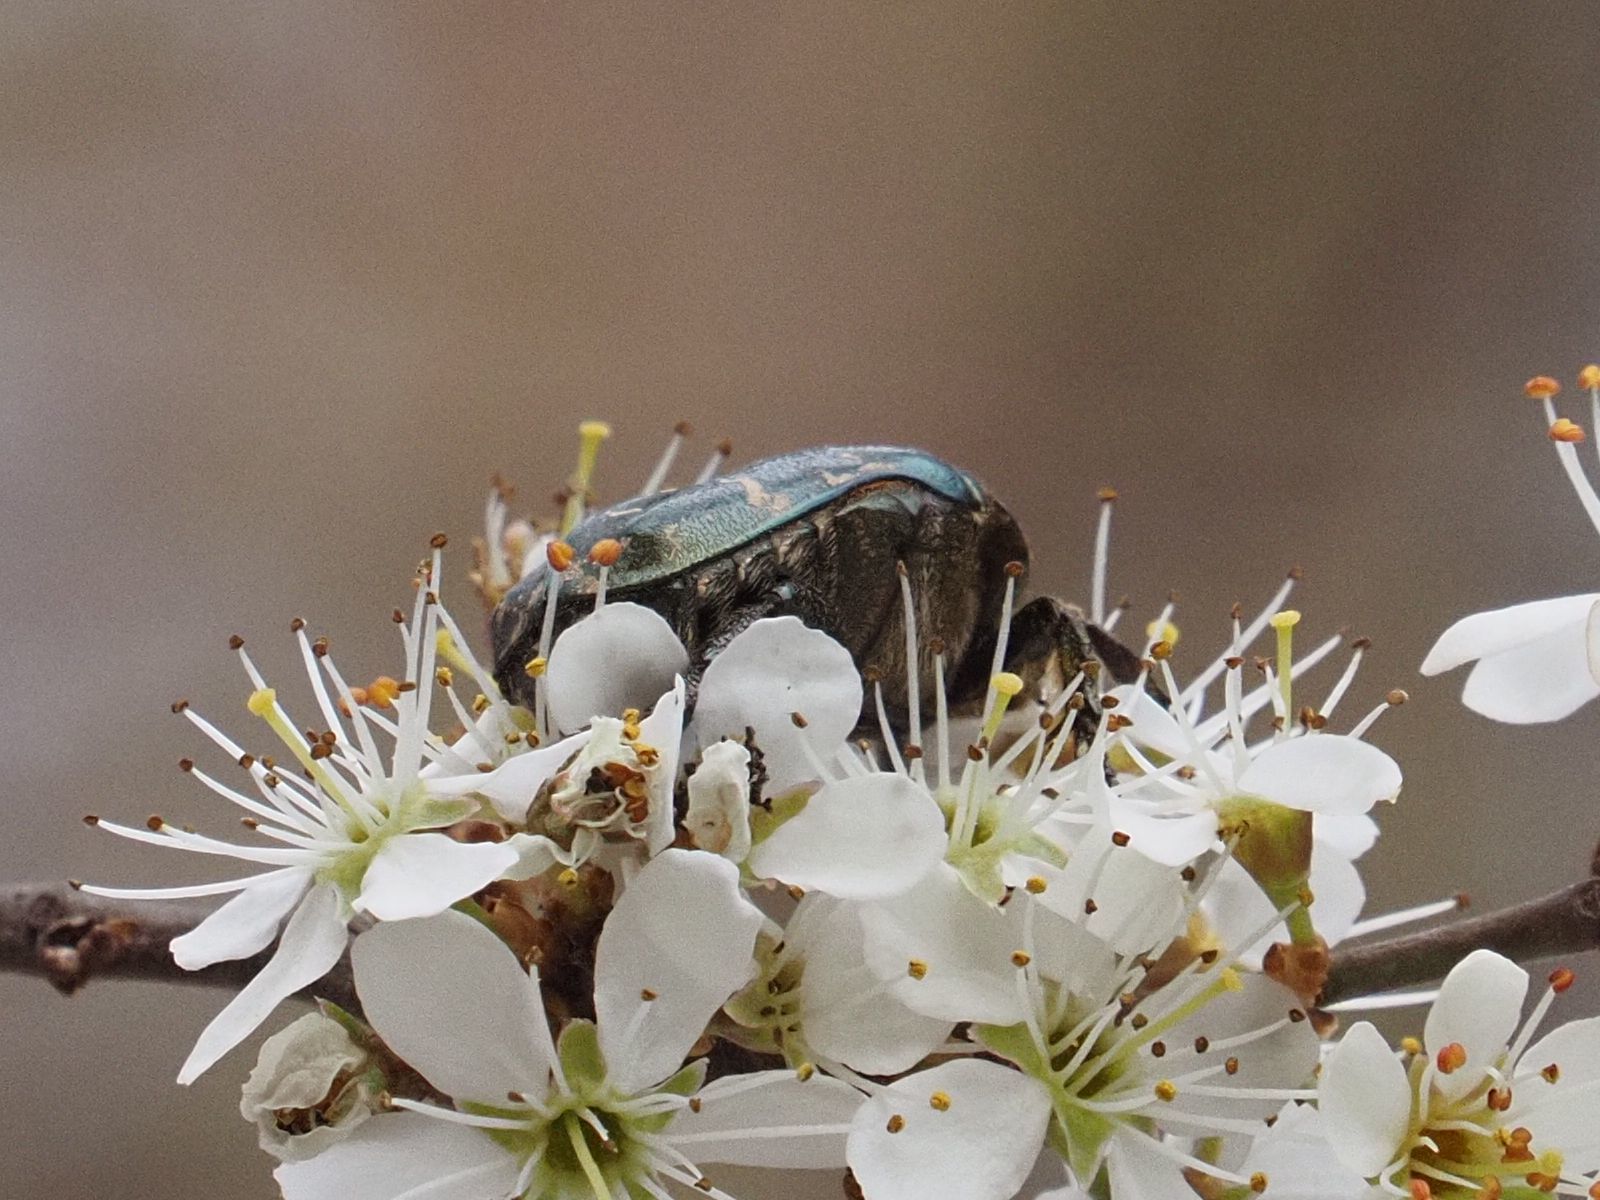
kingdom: Animalia
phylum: Arthropoda
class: Insecta
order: Coleoptera
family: Scarabaeidae
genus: Cetonia
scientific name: Cetonia aurata
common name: Rose chafer
